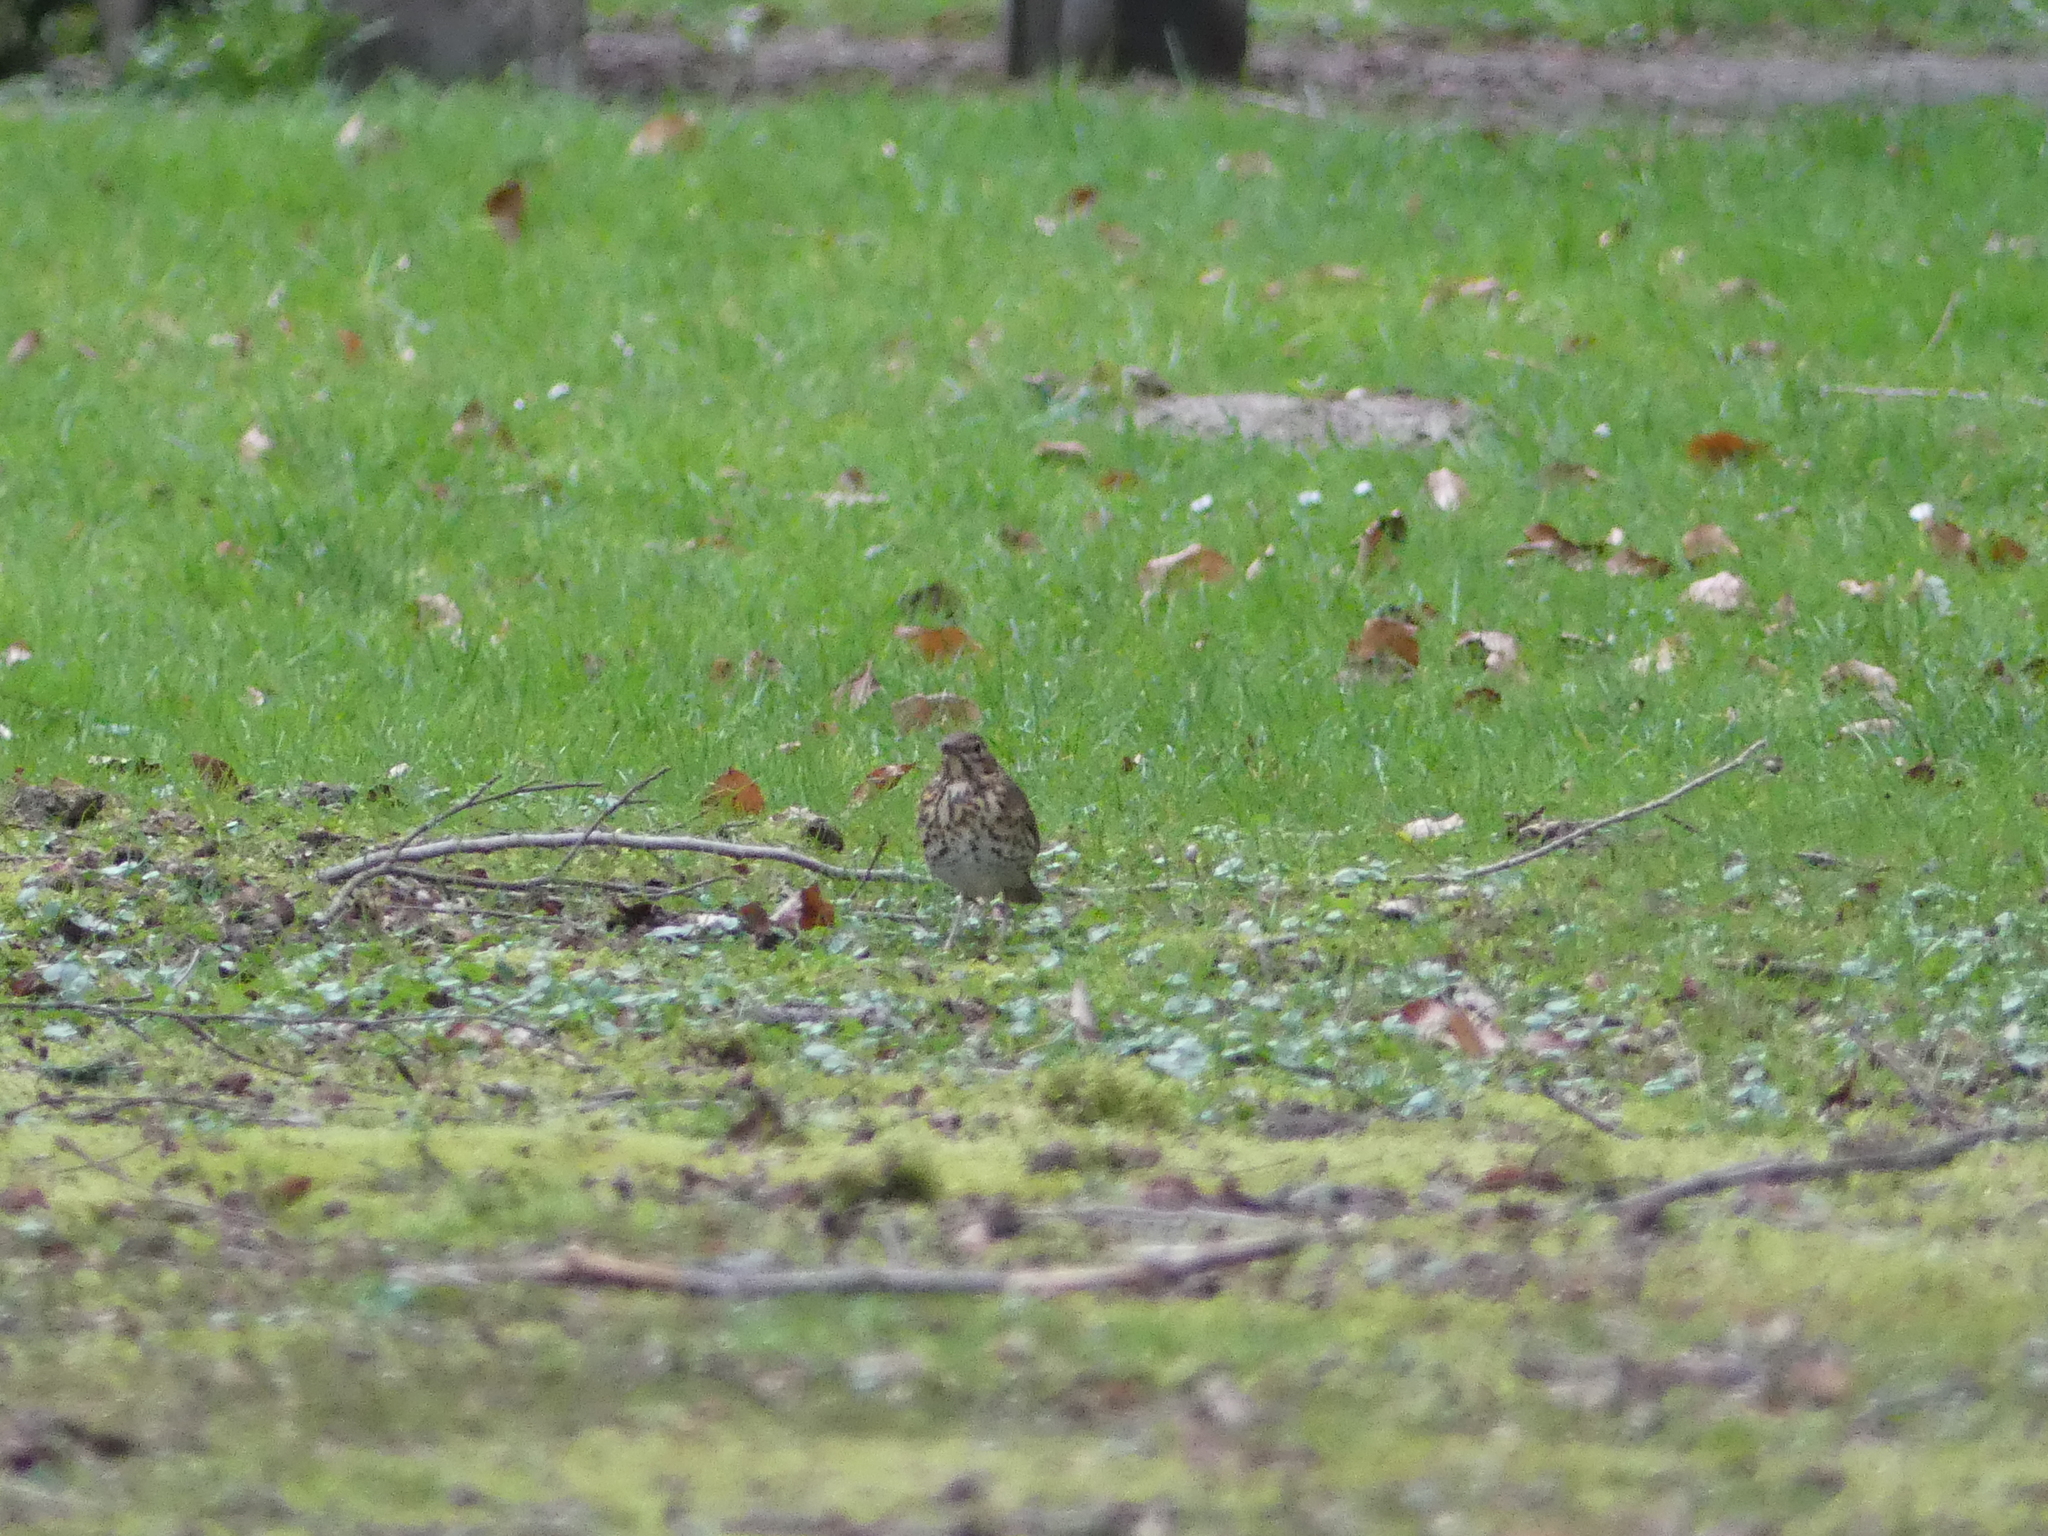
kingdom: Animalia
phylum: Chordata
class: Aves
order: Passeriformes
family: Turdidae
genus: Turdus
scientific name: Turdus philomelos
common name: Song thrush
